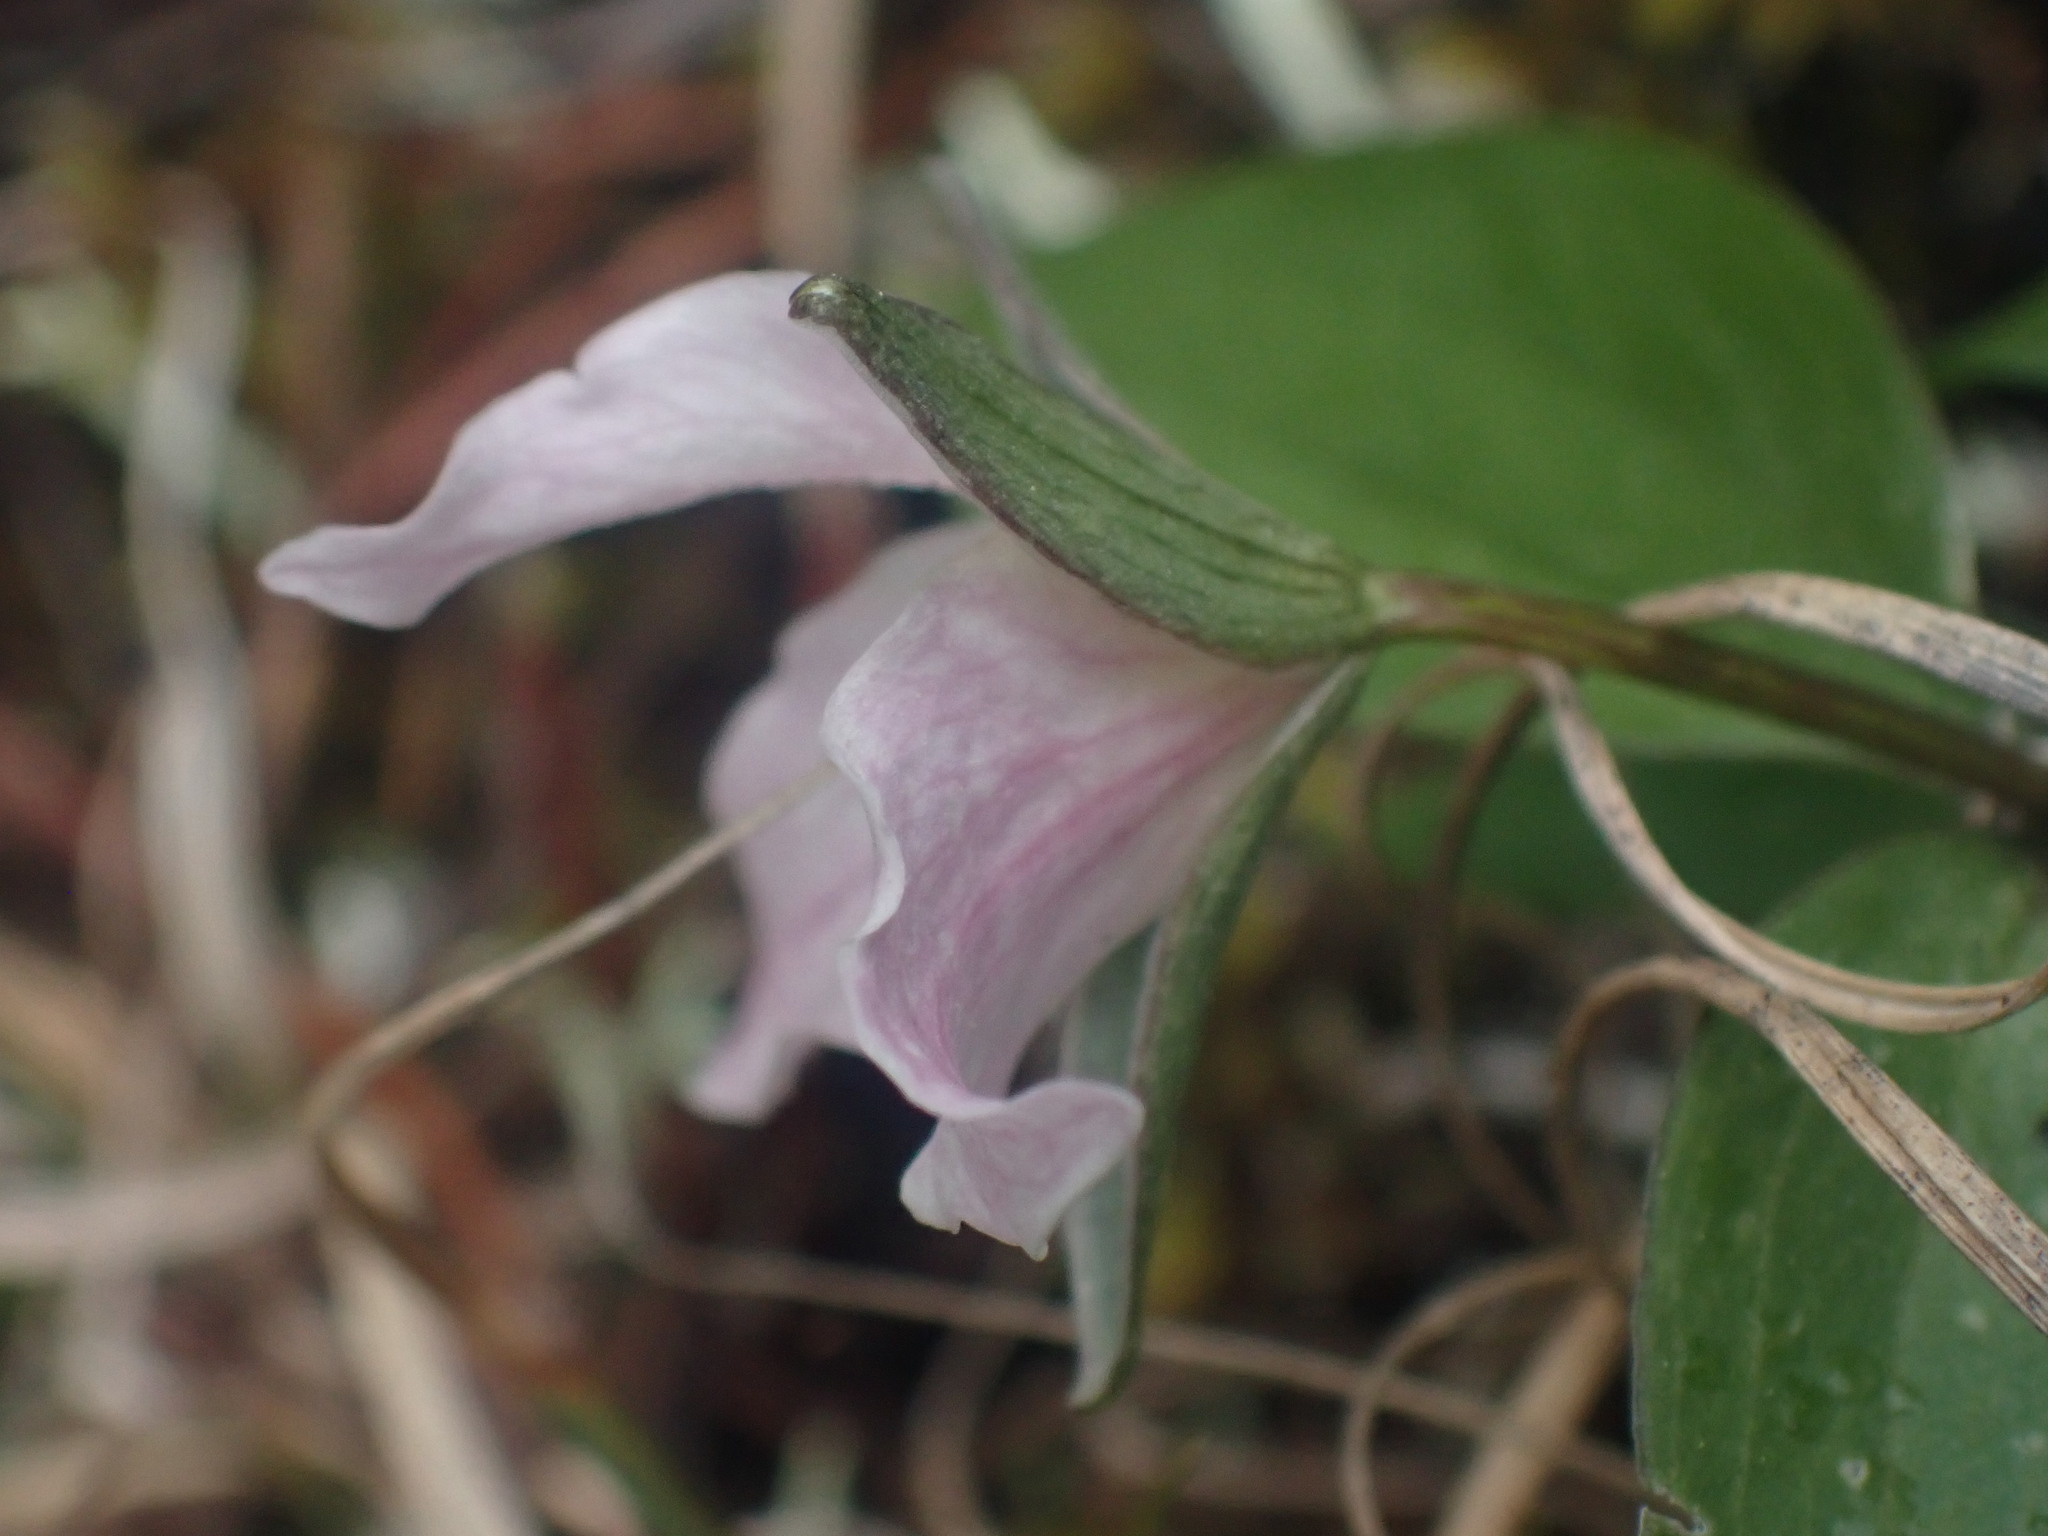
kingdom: Plantae
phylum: Tracheophyta
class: Liliopsida
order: Liliales
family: Melanthiaceae
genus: Trillium
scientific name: Trillium hibbersonii
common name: Hibberson's trillium
